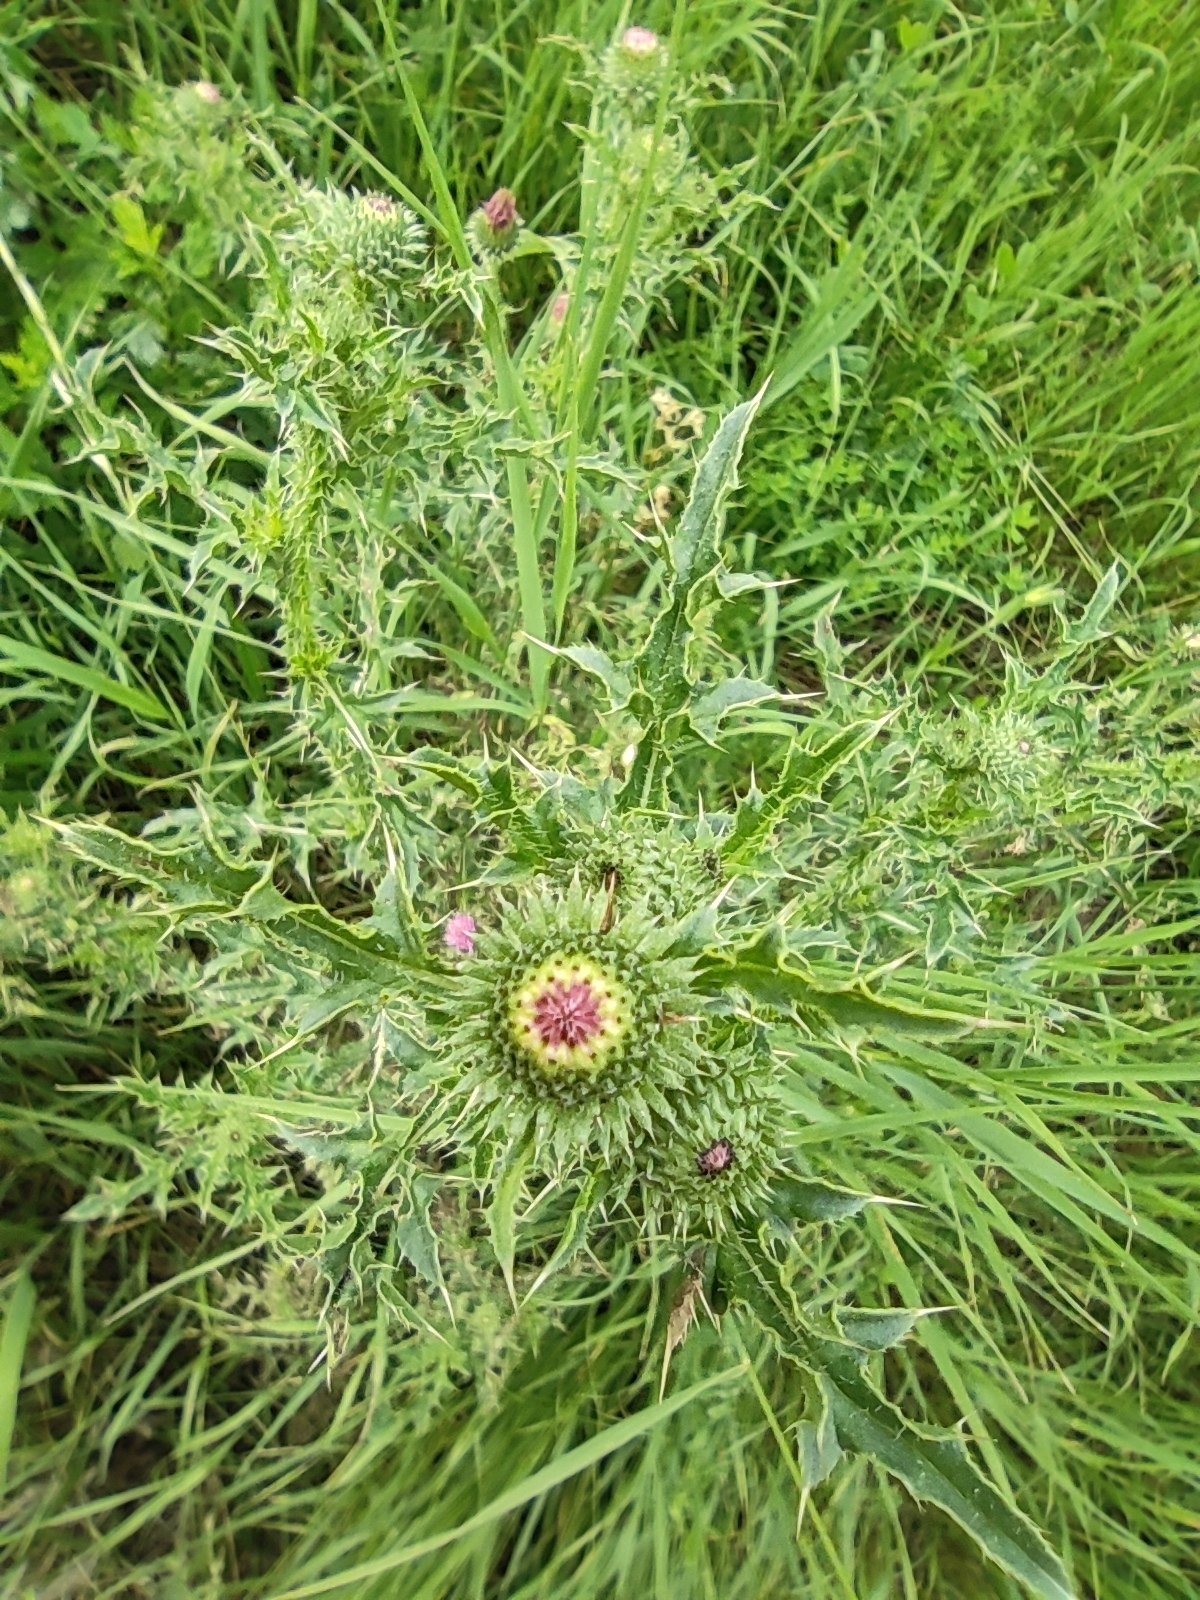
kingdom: Plantae
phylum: Tracheophyta
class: Magnoliopsida
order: Asterales
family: Asteraceae
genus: Carduus
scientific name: Carduus acanthoides
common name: Plumeless thistle
